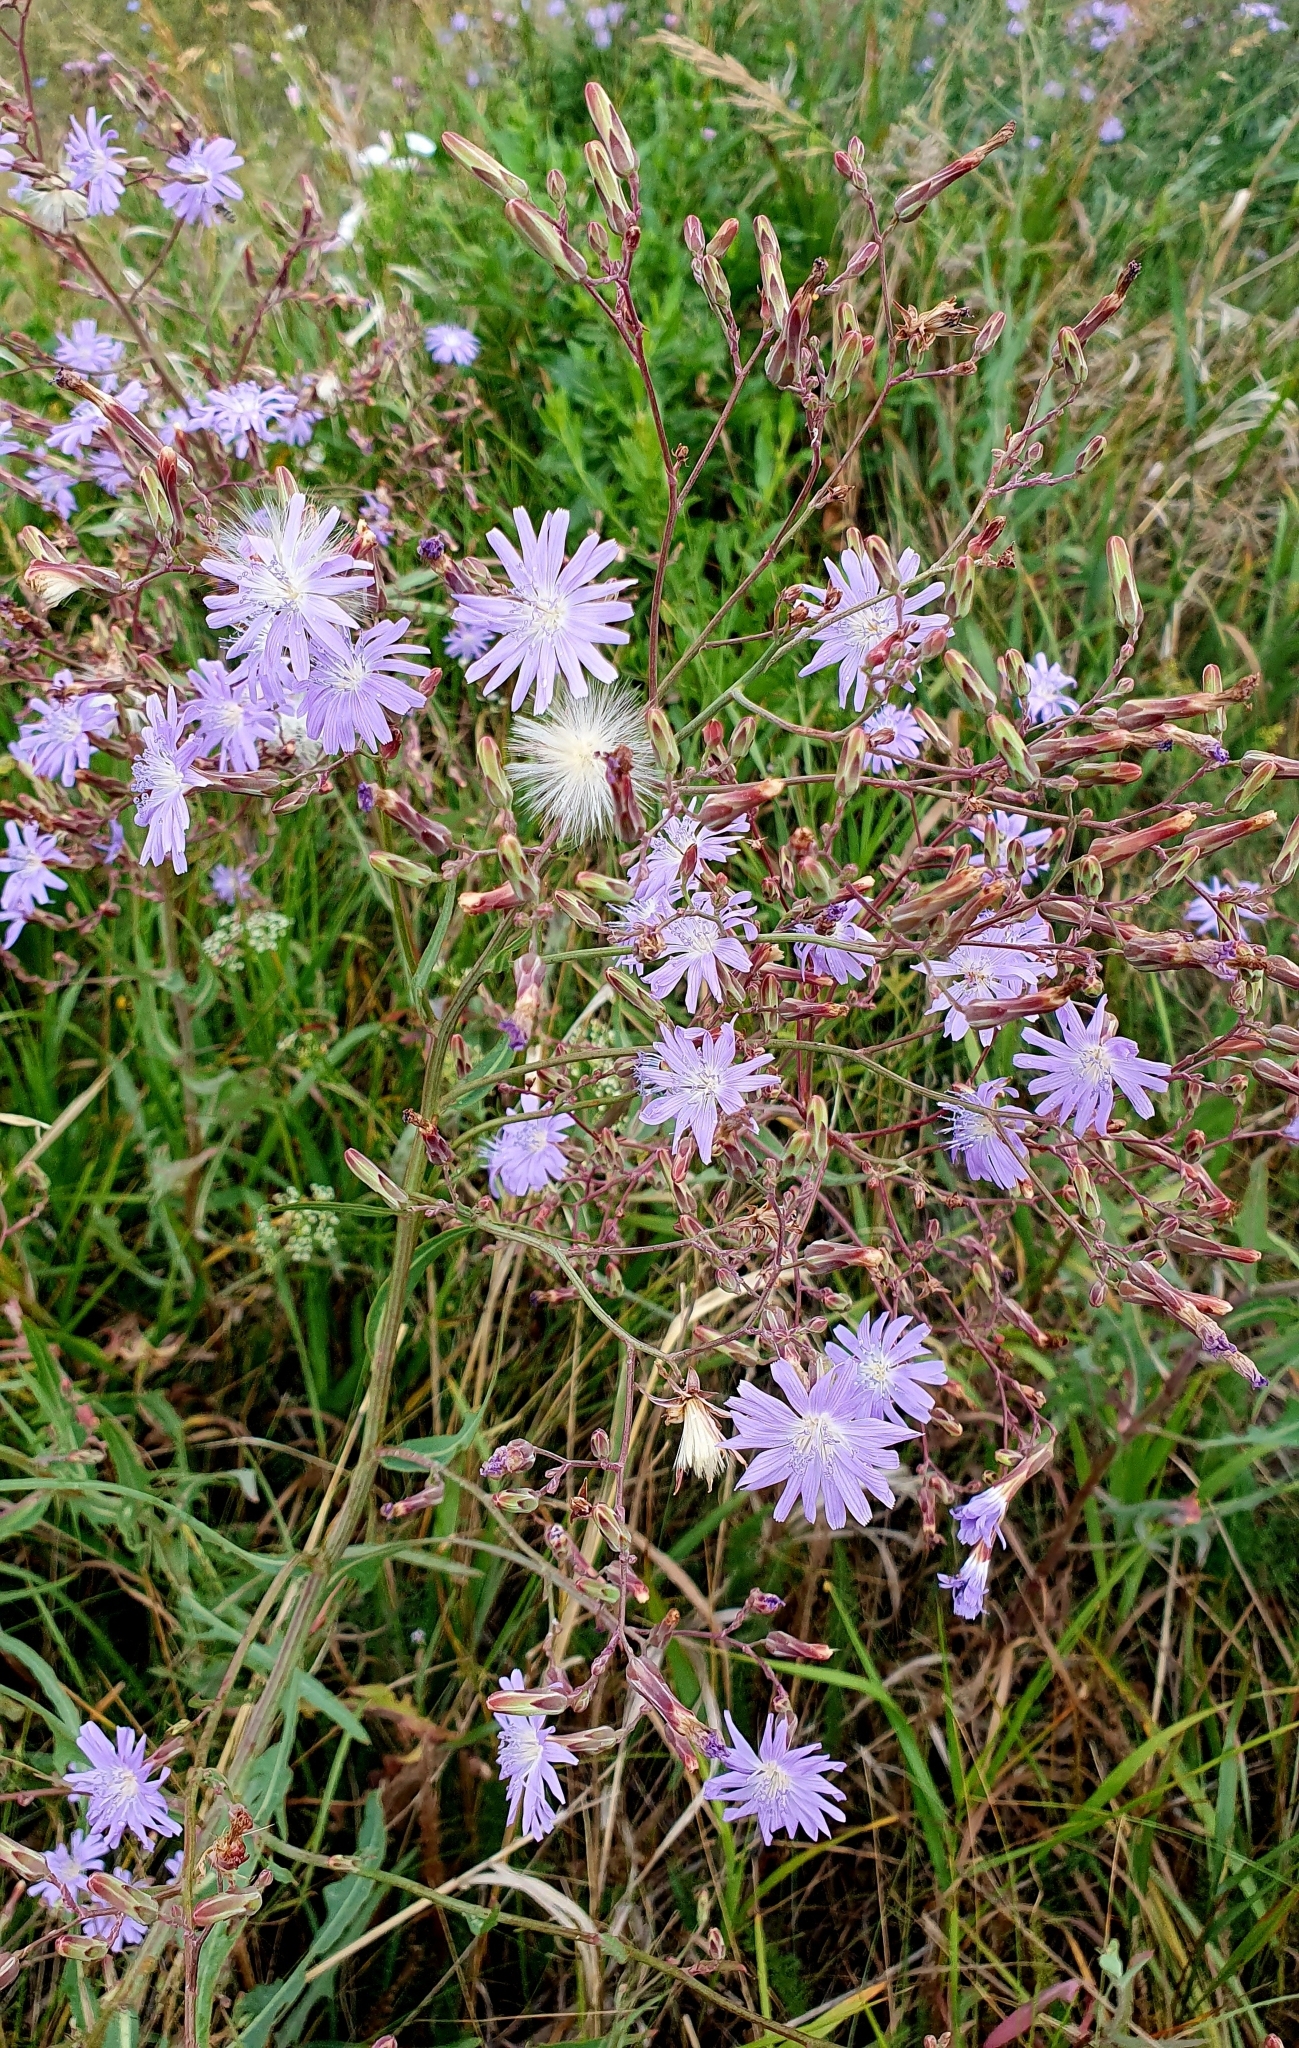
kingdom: Plantae
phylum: Tracheophyta
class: Magnoliopsida
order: Asterales
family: Asteraceae
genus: Lactuca
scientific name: Lactuca tatarica
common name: Blue lettuce
